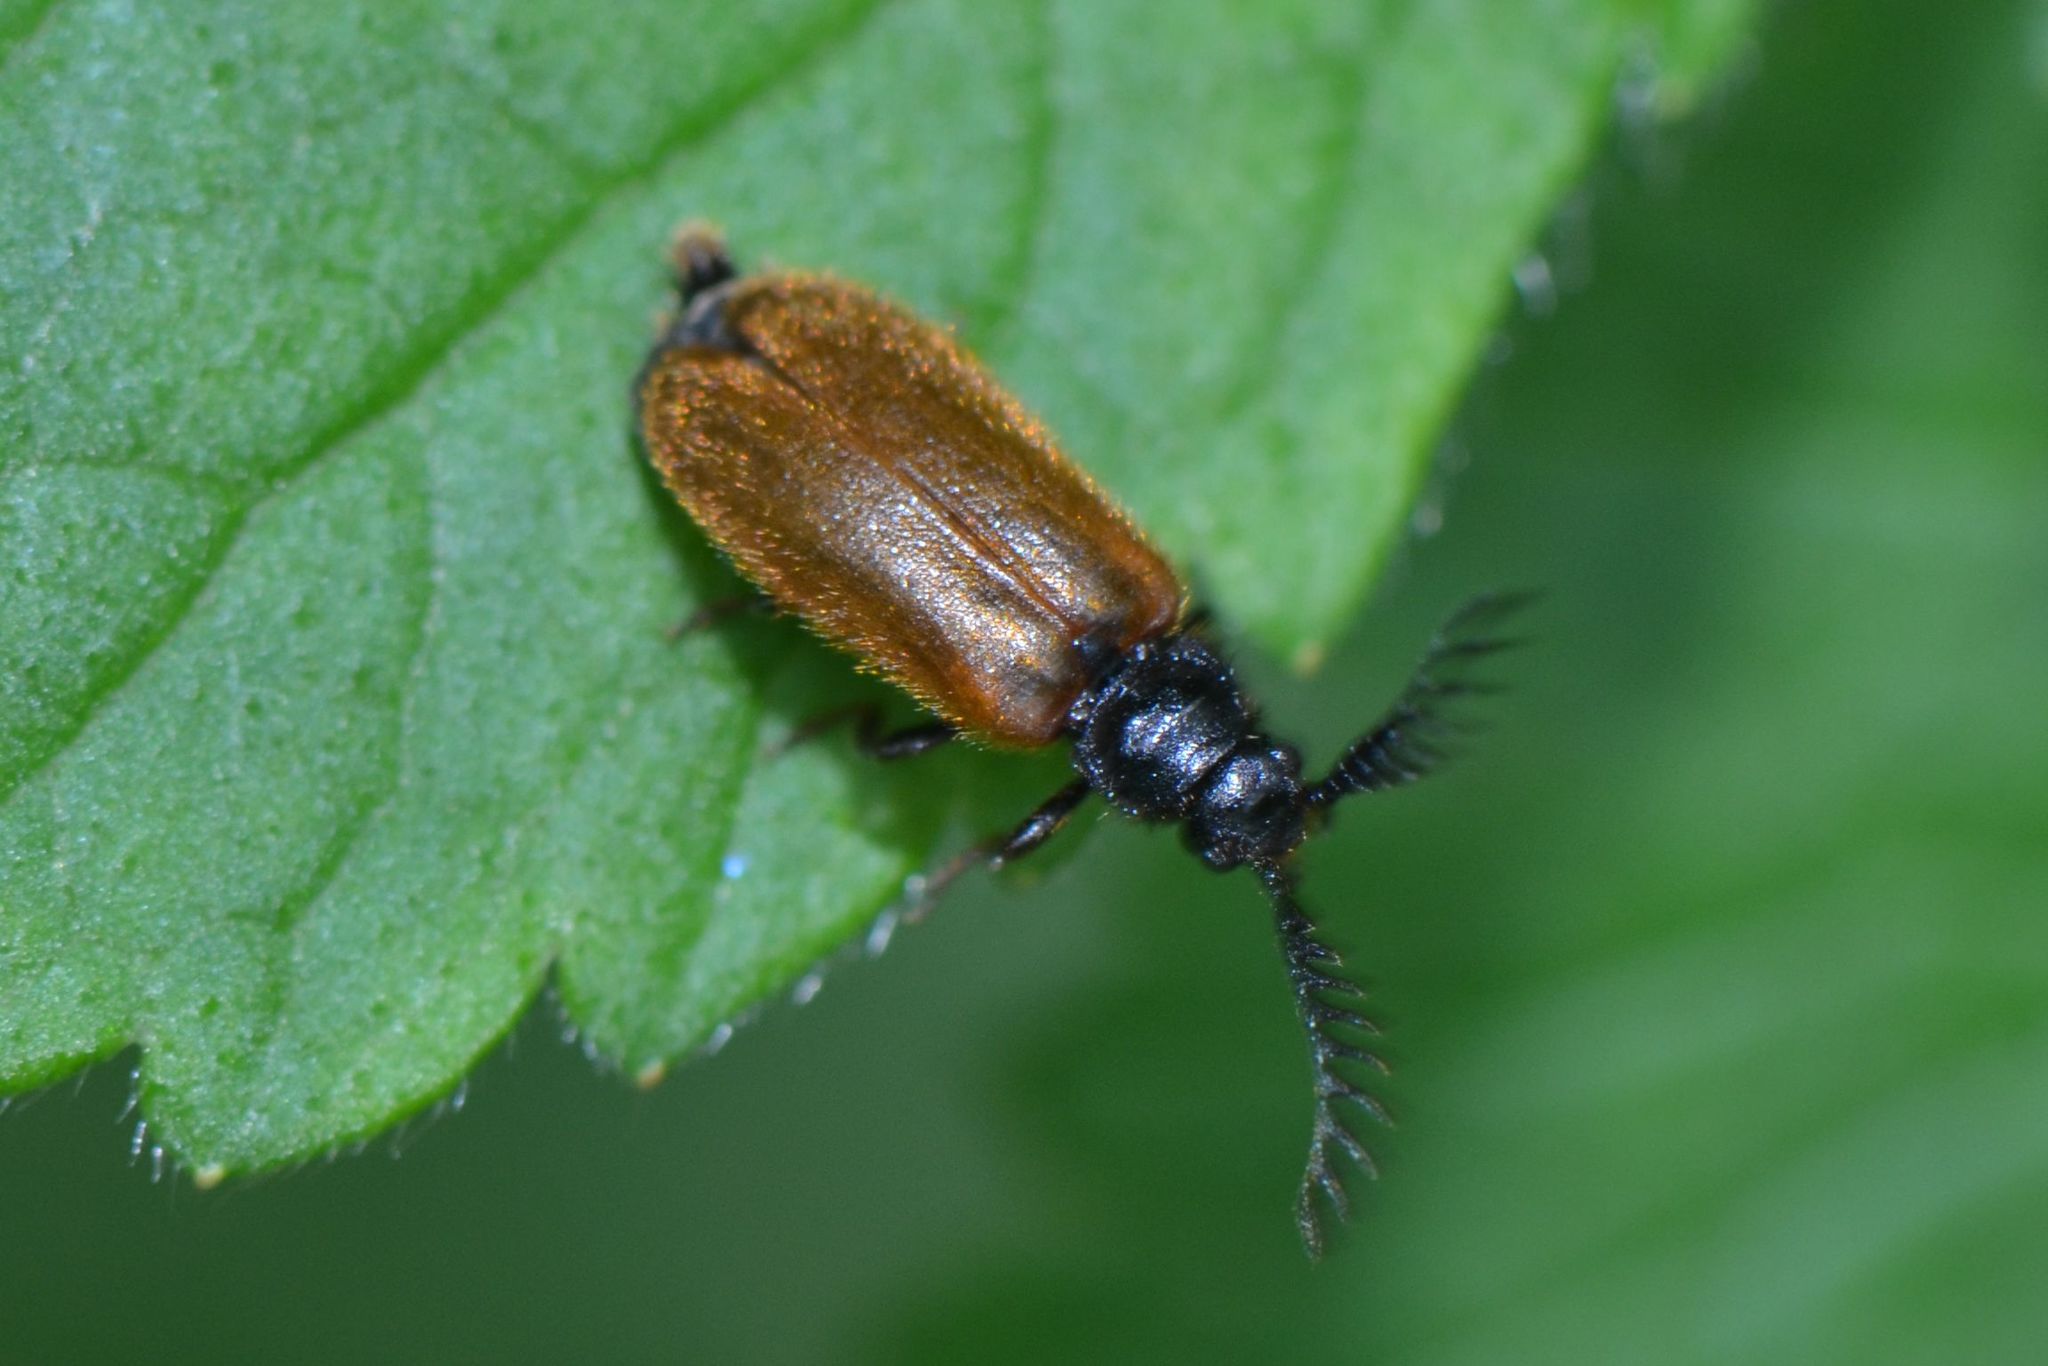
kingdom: Animalia
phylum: Arthropoda
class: Insecta
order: Coleoptera
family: Drilidae
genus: Drilus
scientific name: Drilus flavescens
